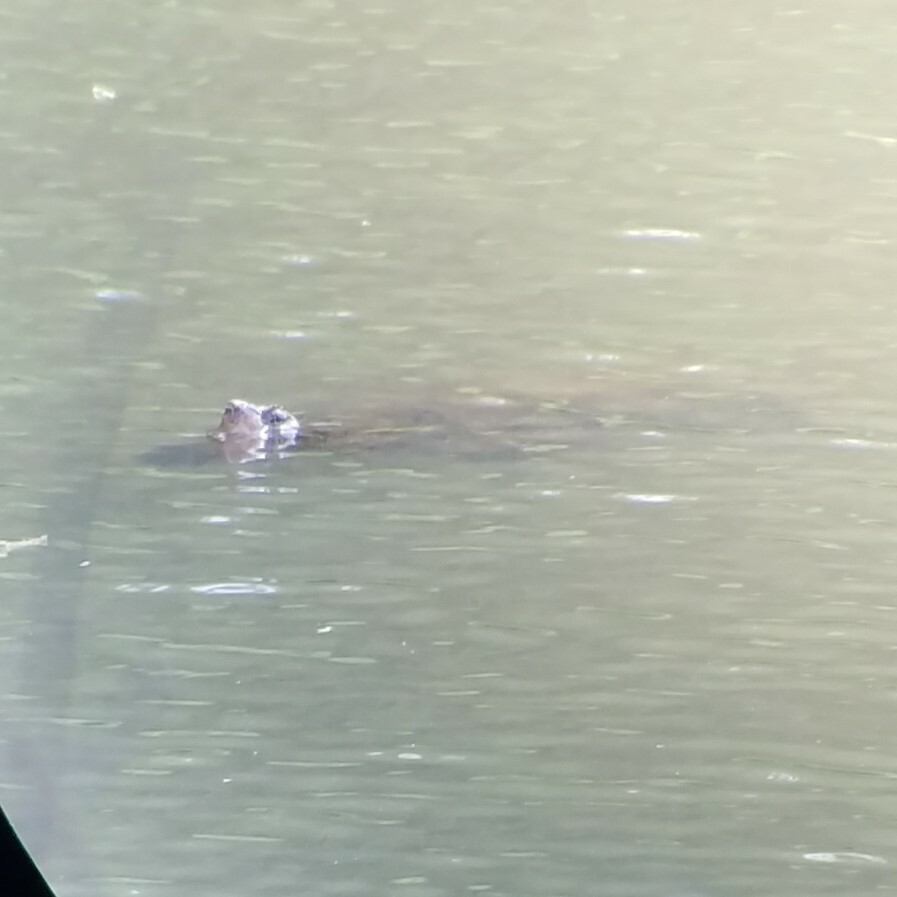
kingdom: Animalia
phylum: Chordata
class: Testudines
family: Chelydridae
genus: Chelydra
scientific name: Chelydra serpentina
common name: Common snapping turtle
